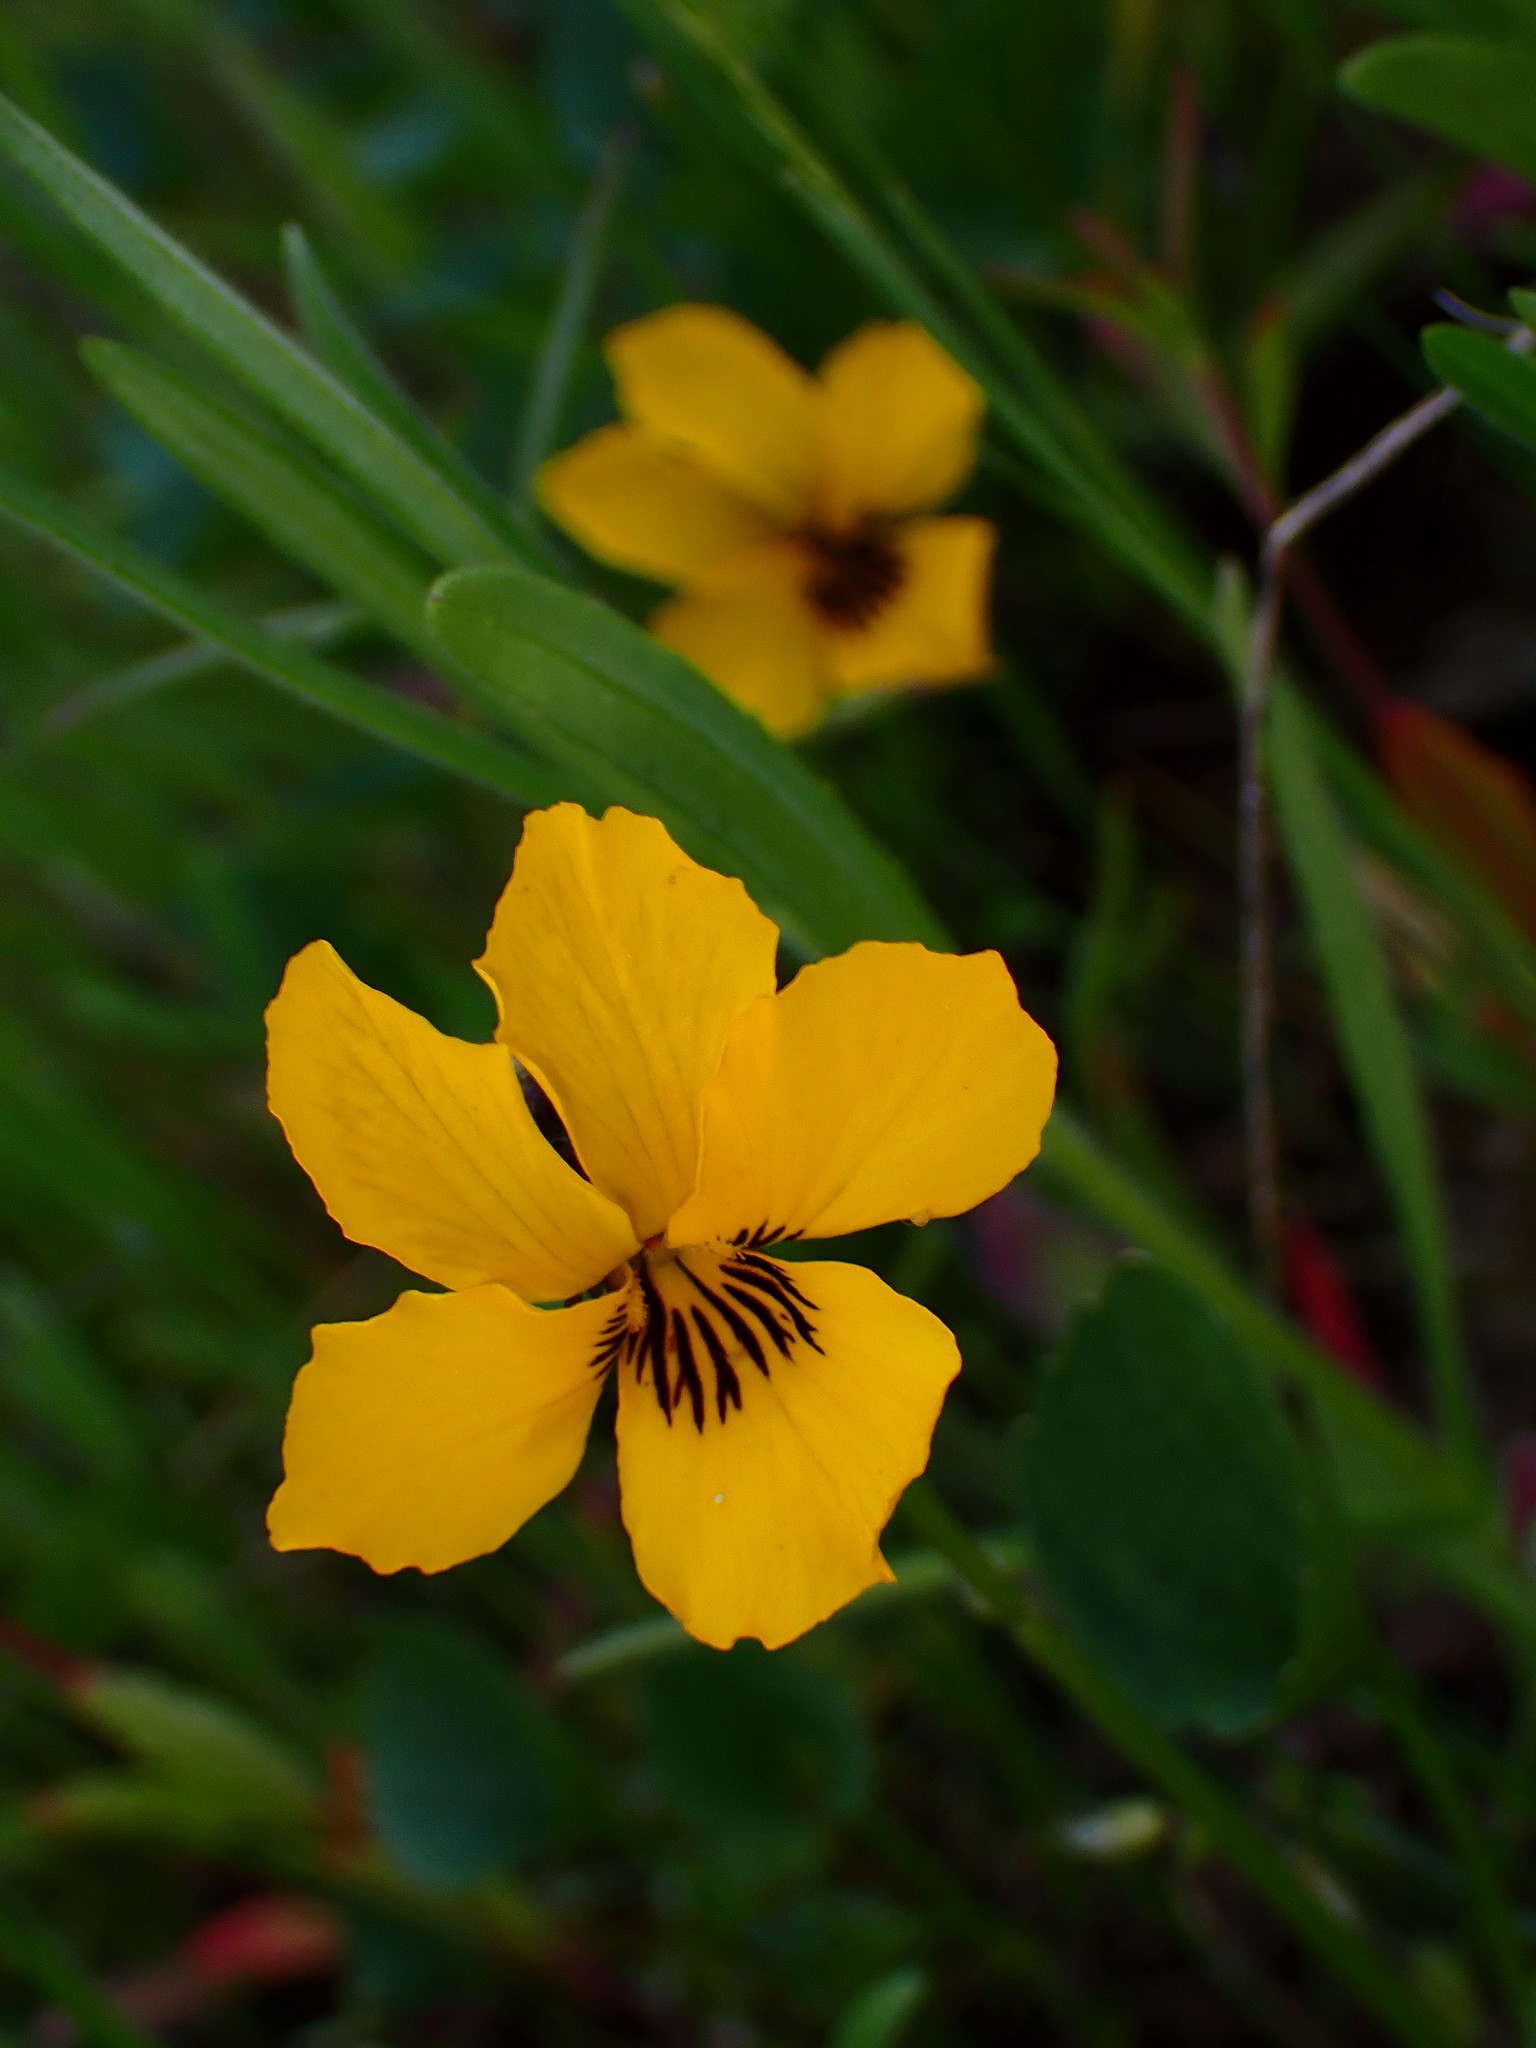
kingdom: Plantae
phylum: Tracheophyta
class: Magnoliopsida
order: Malpighiales
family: Violaceae
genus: Viola
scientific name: Viola pedunculata
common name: California golden violet
